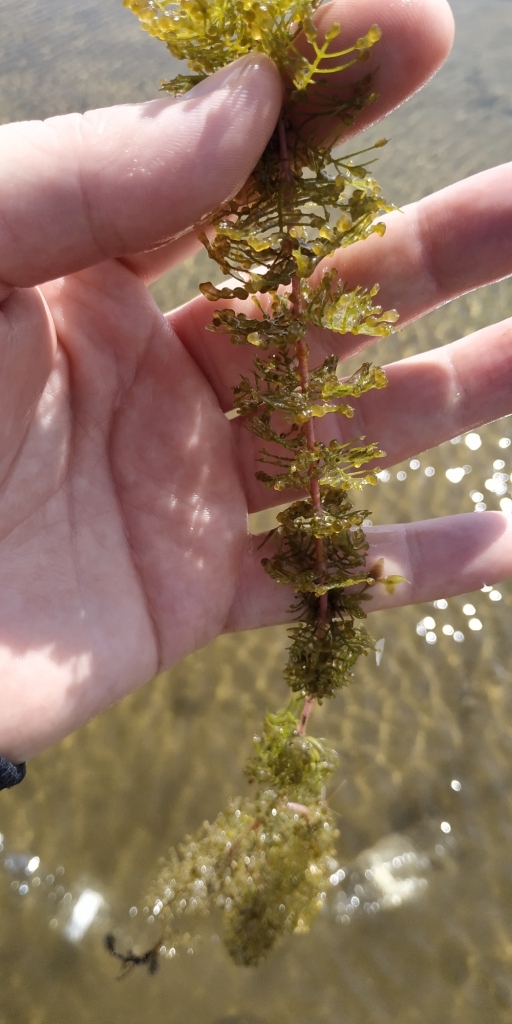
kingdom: Plantae
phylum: Tracheophyta
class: Magnoliopsida
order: Saxifragales
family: Haloragaceae
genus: Myriophyllum
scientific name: Myriophyllum sibiricum
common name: Siberian water-milfoil
